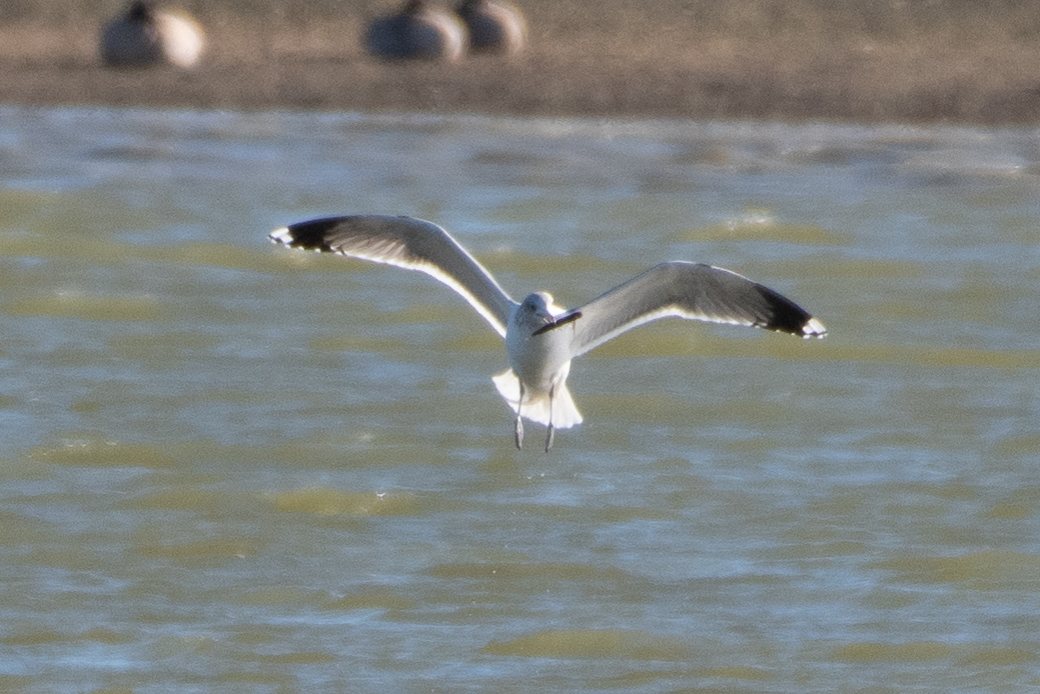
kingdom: Animalia
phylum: Chordata
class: Aves
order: Charadriiformes
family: Laridae
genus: Larus
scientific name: Larus californicus
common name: California gull
